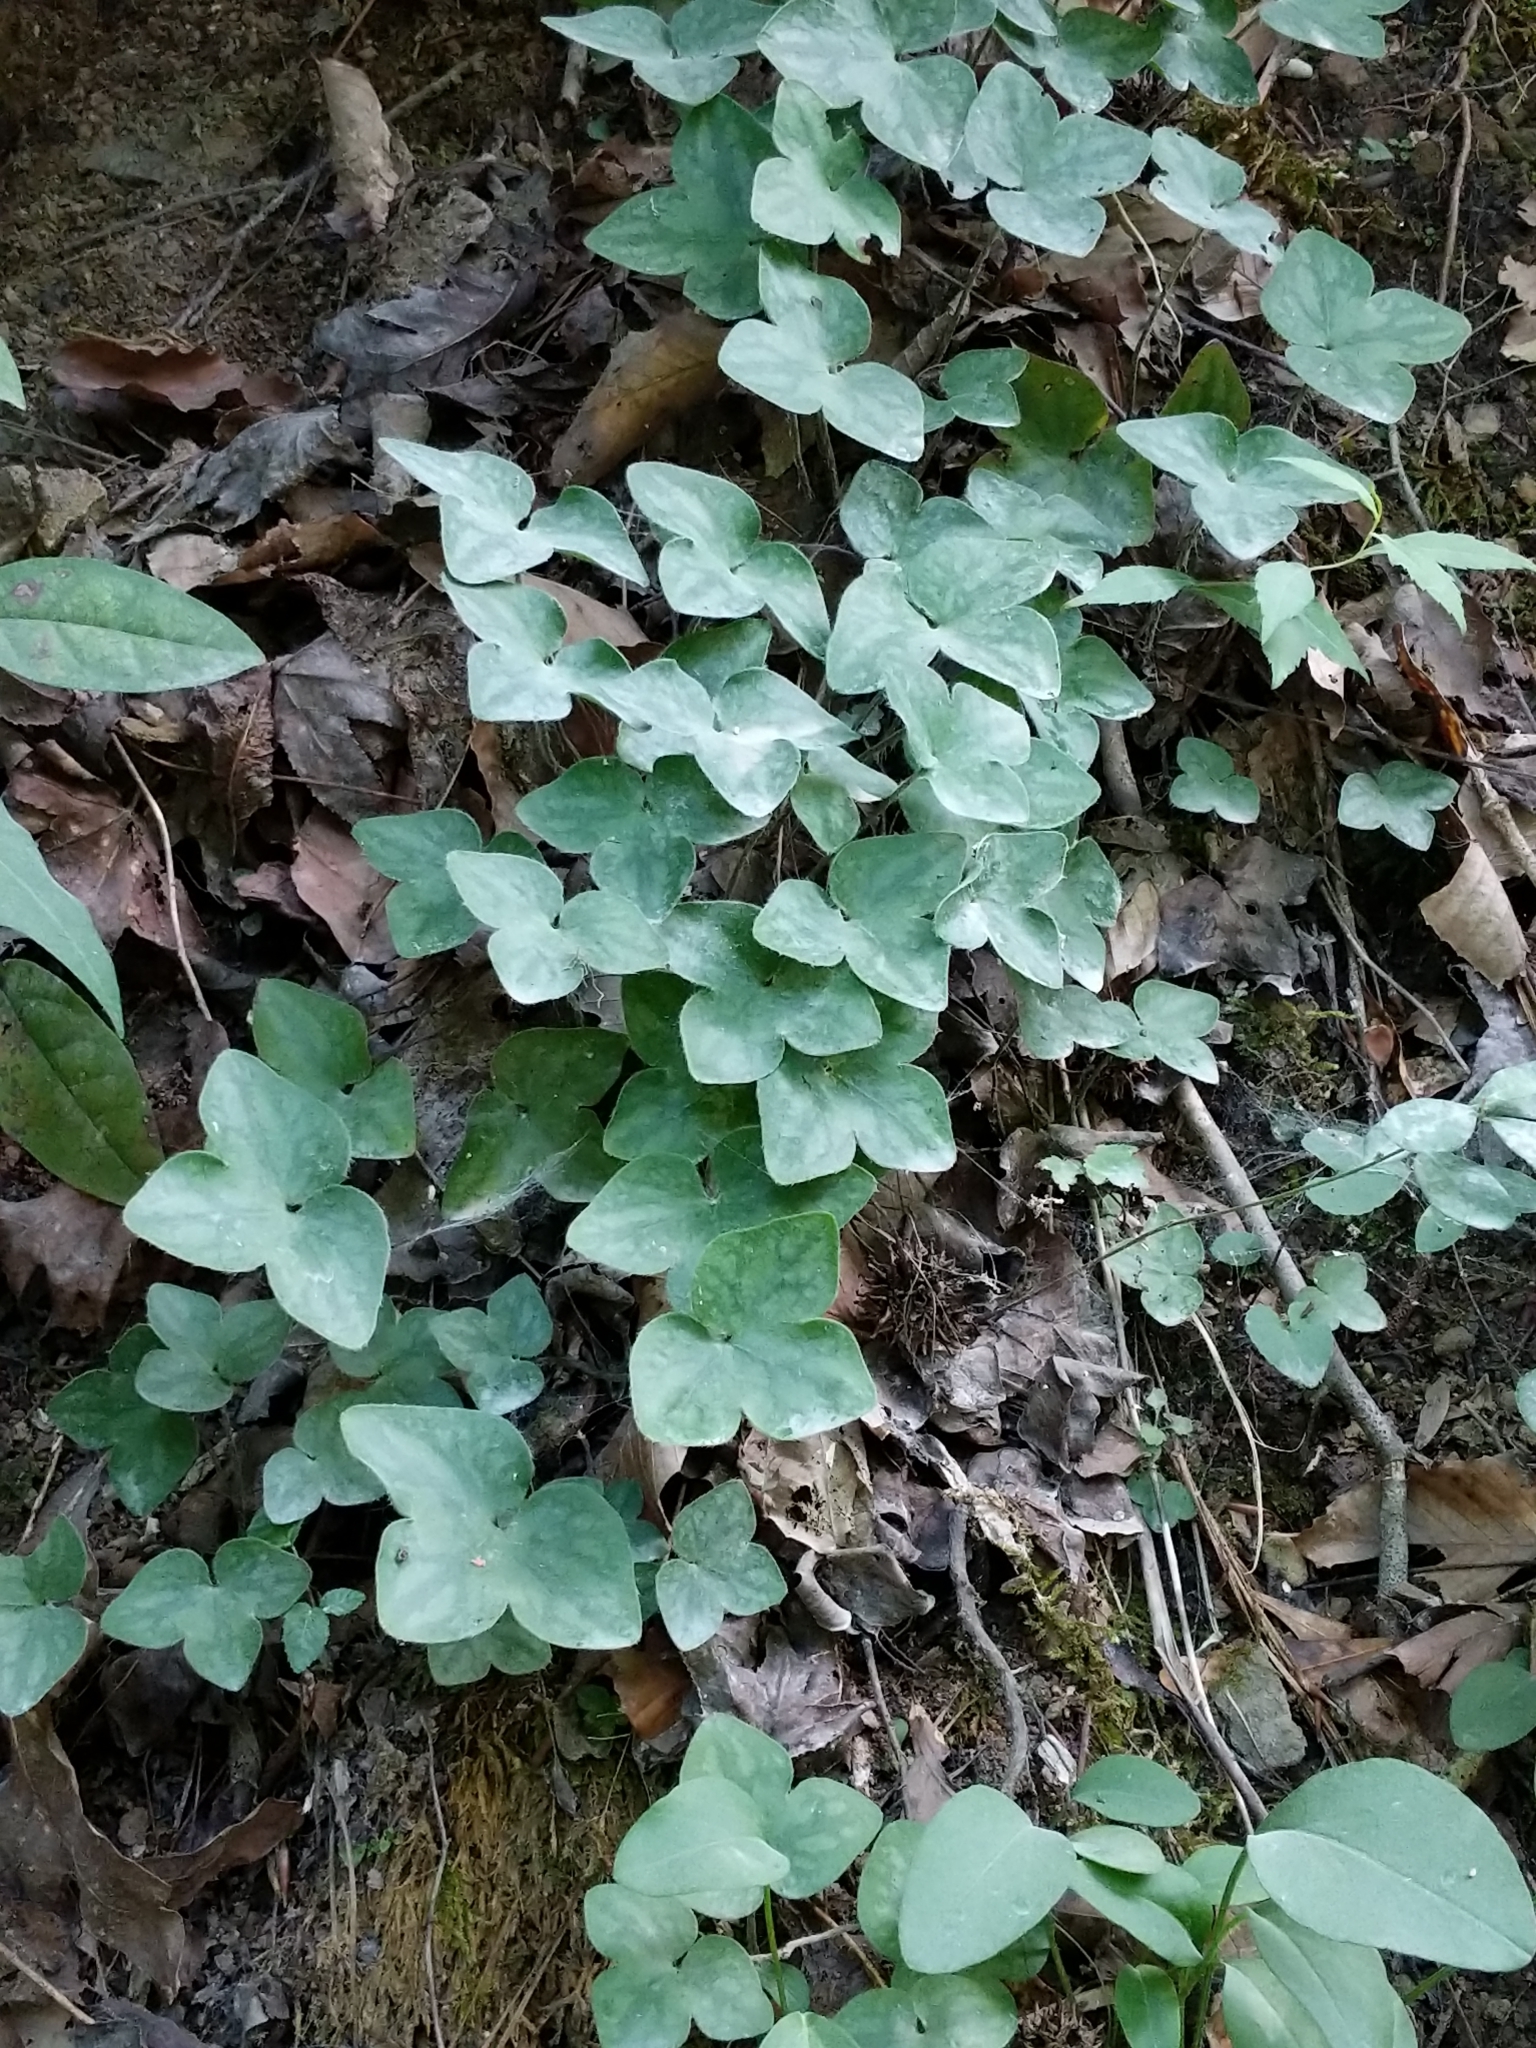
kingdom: Plantae
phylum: Tracheophyta
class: Magnoliopsida
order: Ranunculales
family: Ranunculaceae
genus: Hepatica
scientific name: Hepatica acutiloba
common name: Sharp-lobed hepatica
